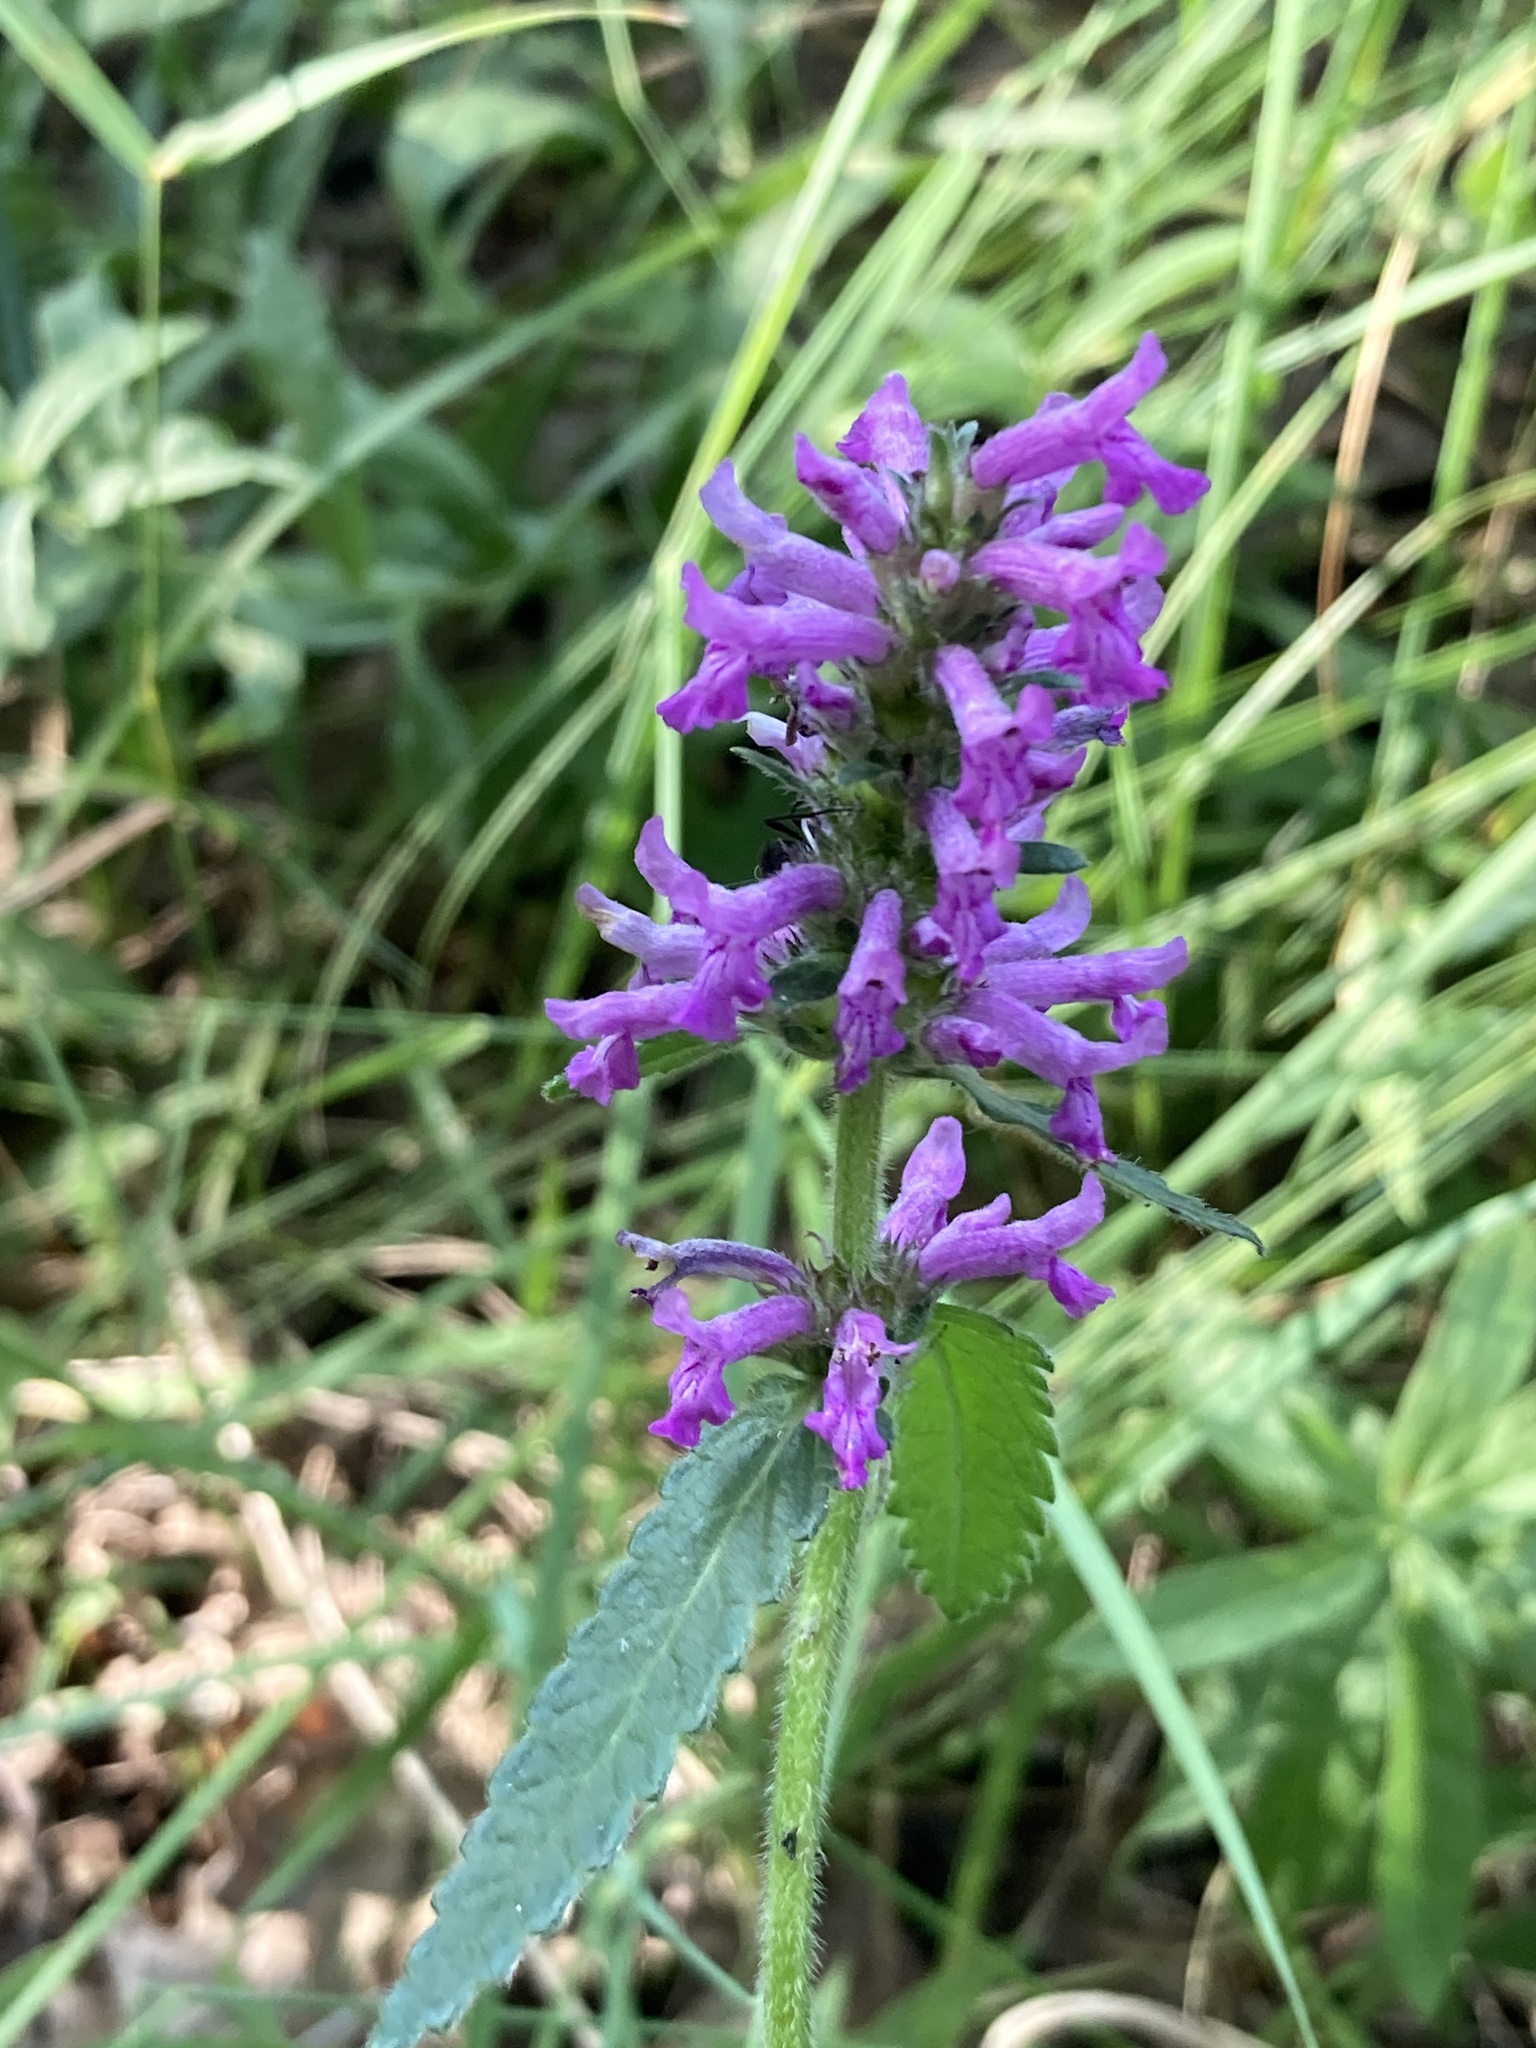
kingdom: Plantae
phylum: Tracheophyta
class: Magnoliopsida
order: Lamiales
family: Lamiaceae
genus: Betonica
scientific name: Betonica officinalis
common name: Bishop's-wort
